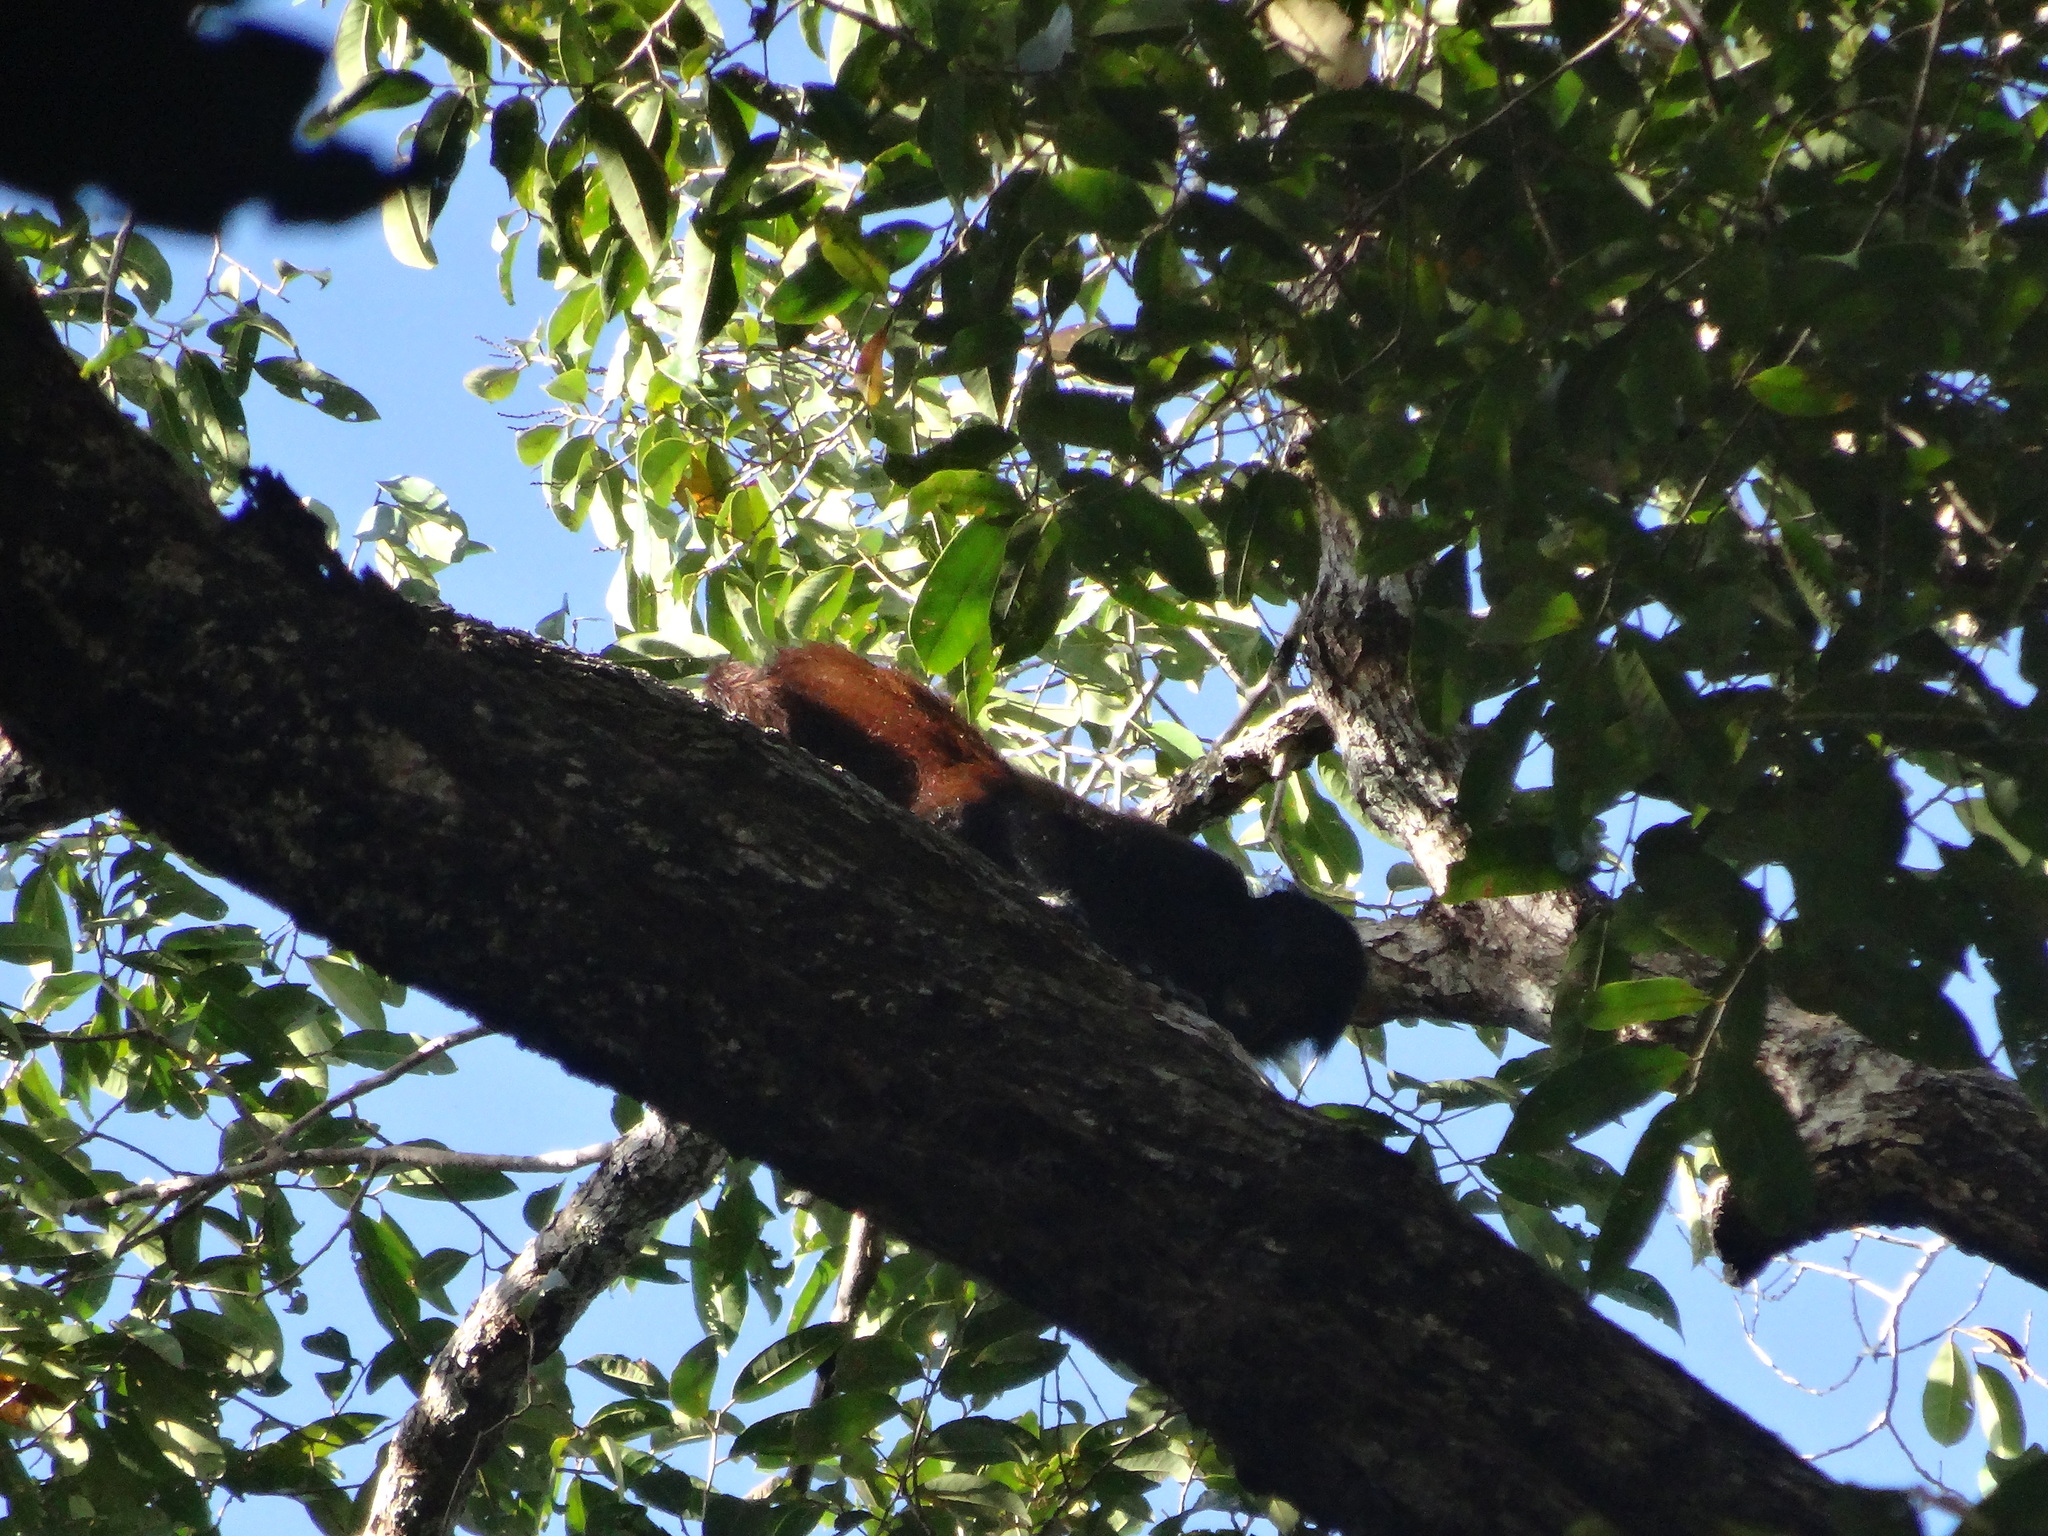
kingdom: Animalia
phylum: Chordata
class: Mammalia
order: Primates
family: Pitheciidae
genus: Cacajao
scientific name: Cacajao melanocephalus
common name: Black-headed uacari
